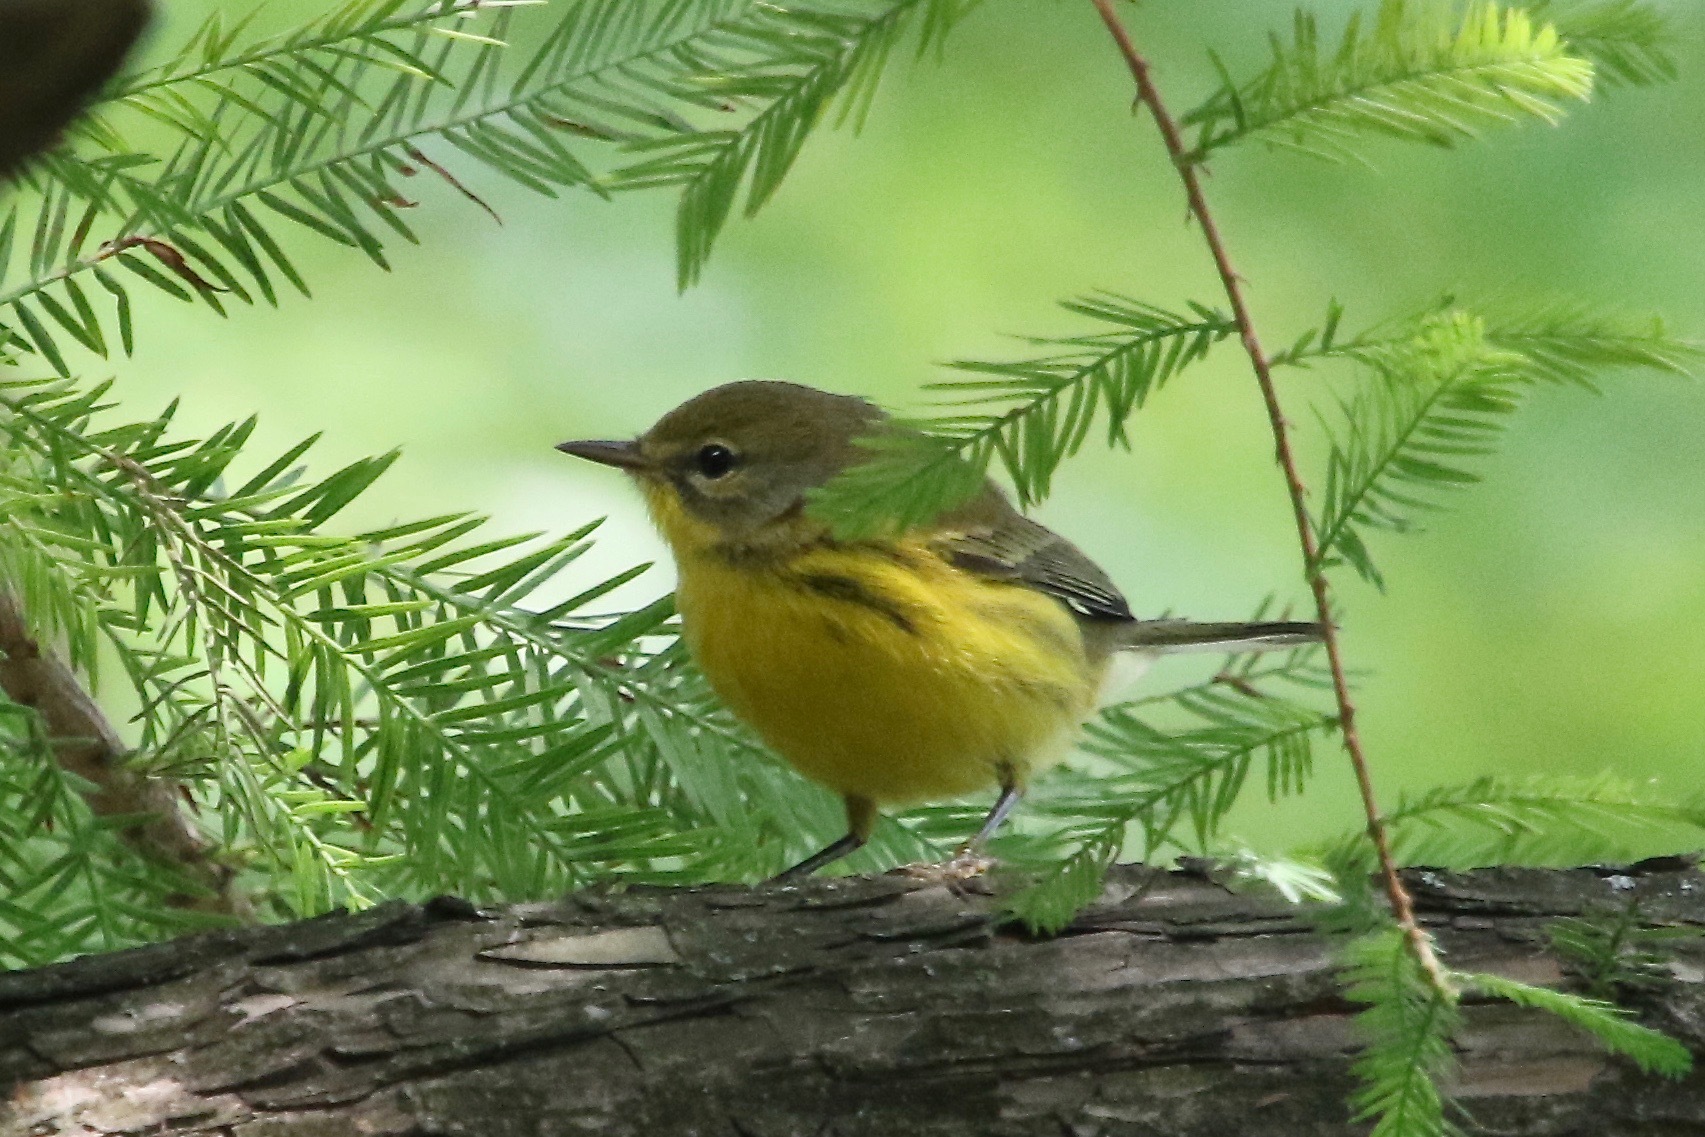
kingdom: Animalia
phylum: Chordata
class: Aves
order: Passeriformes
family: Parulidae
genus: Setophaga
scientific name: Setophaga discolor
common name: Prairie warbler
